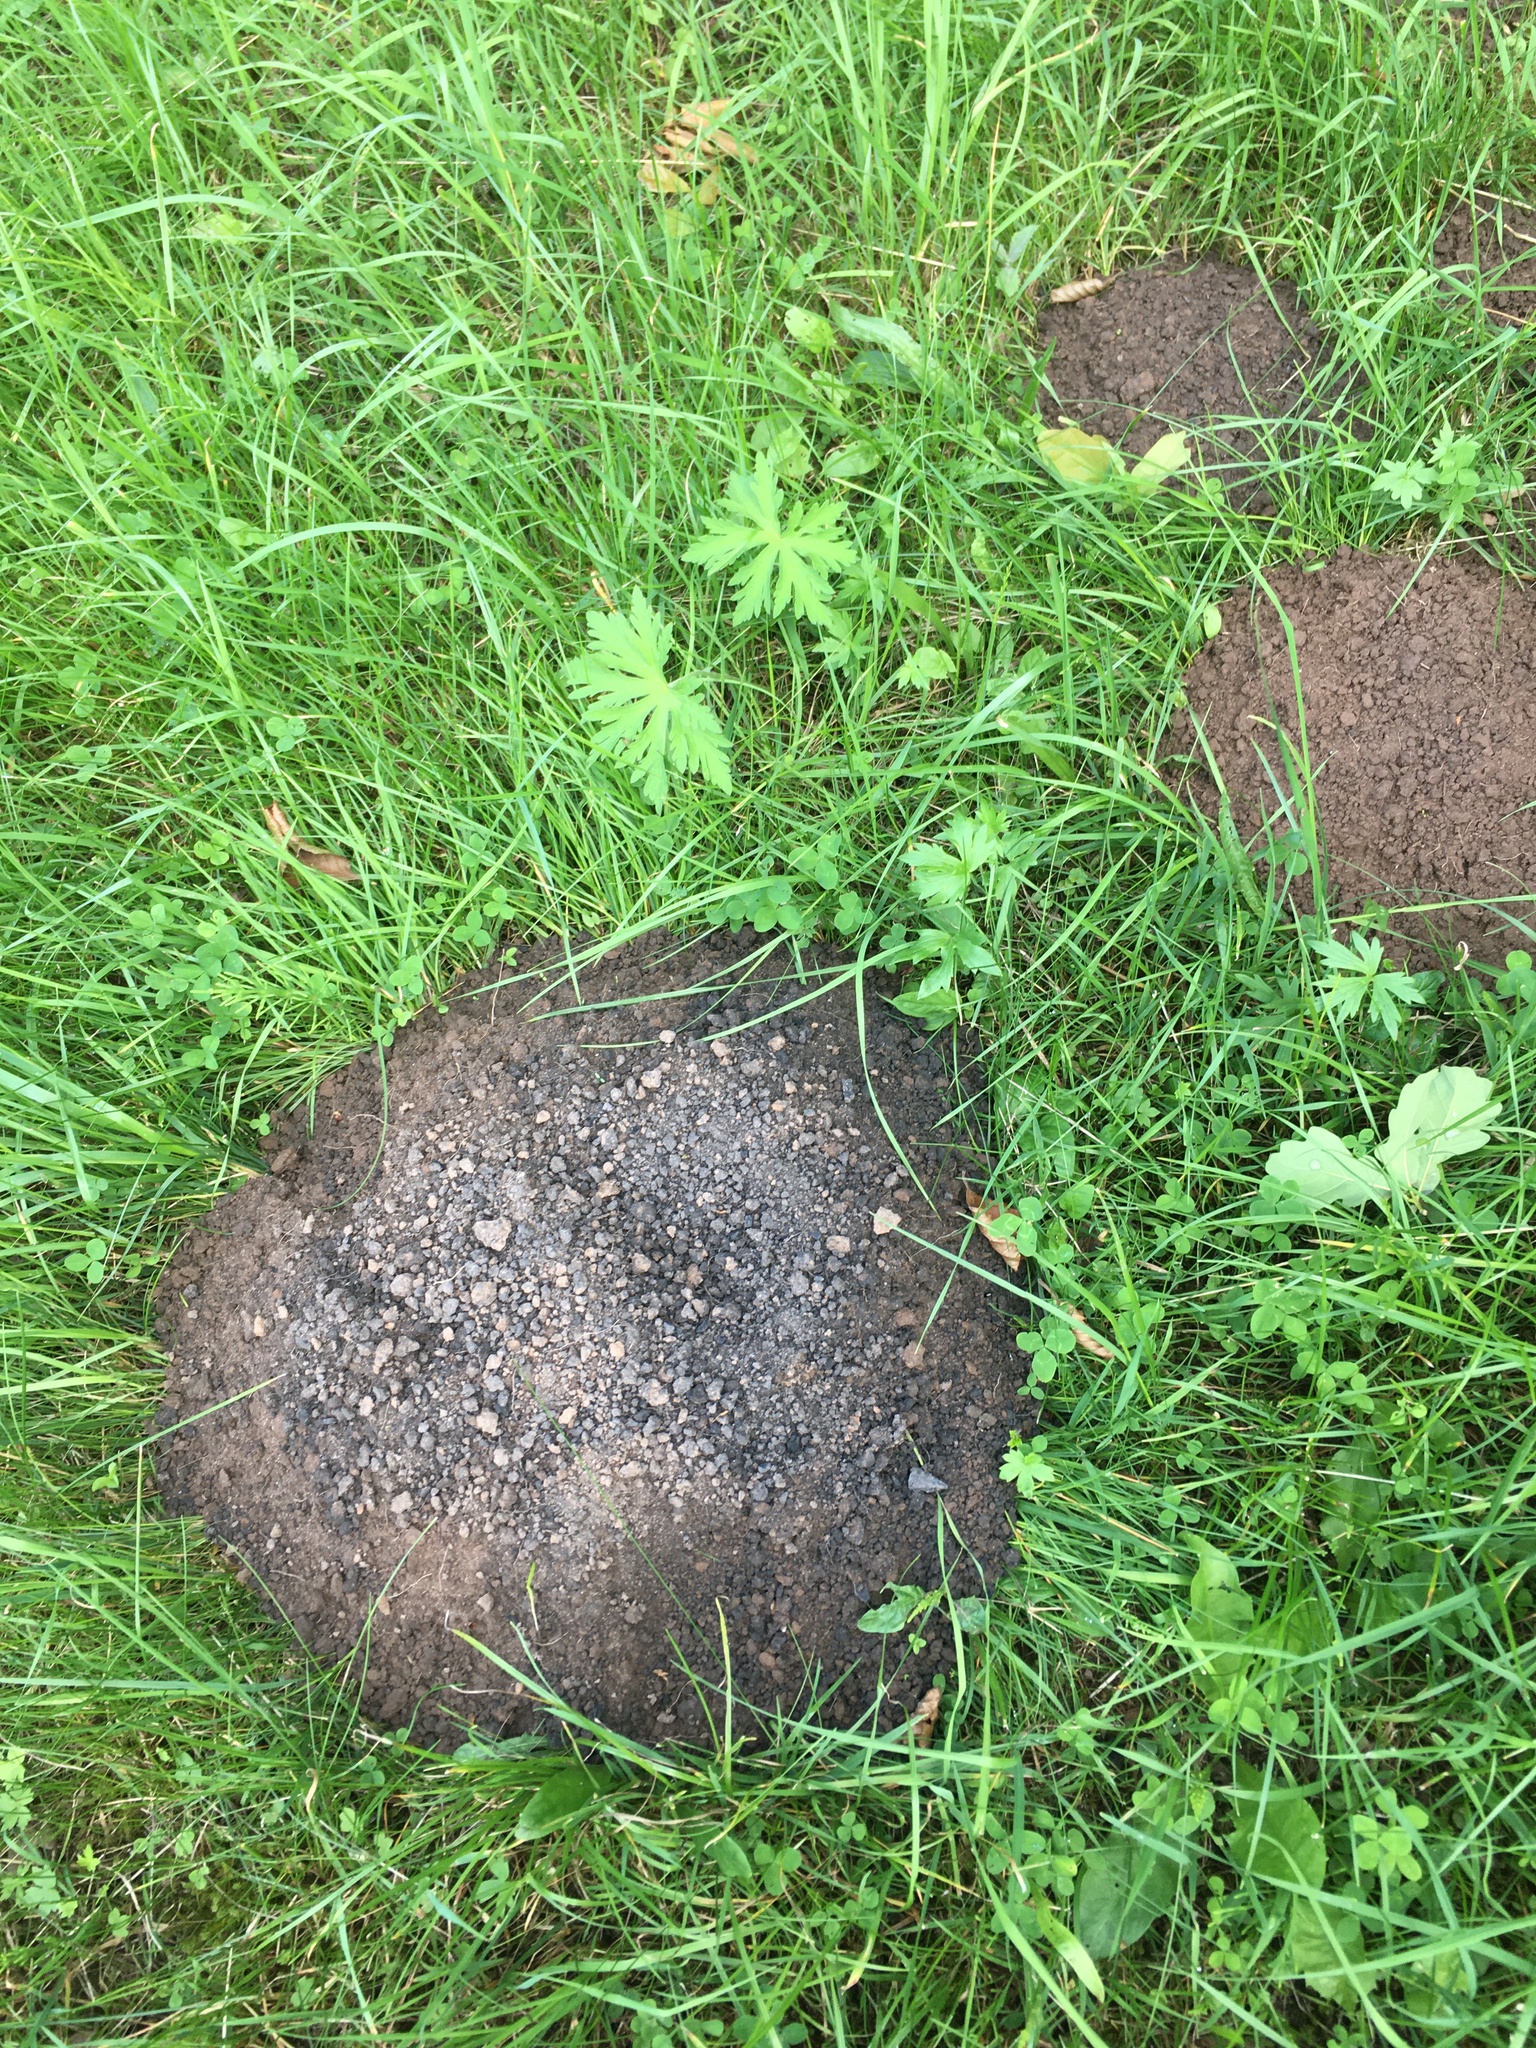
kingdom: Animalia
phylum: Chordata
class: Mammalia
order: Soricomorpha
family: Talpidae
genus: Talpa
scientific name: Talpa europaea
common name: European mole
